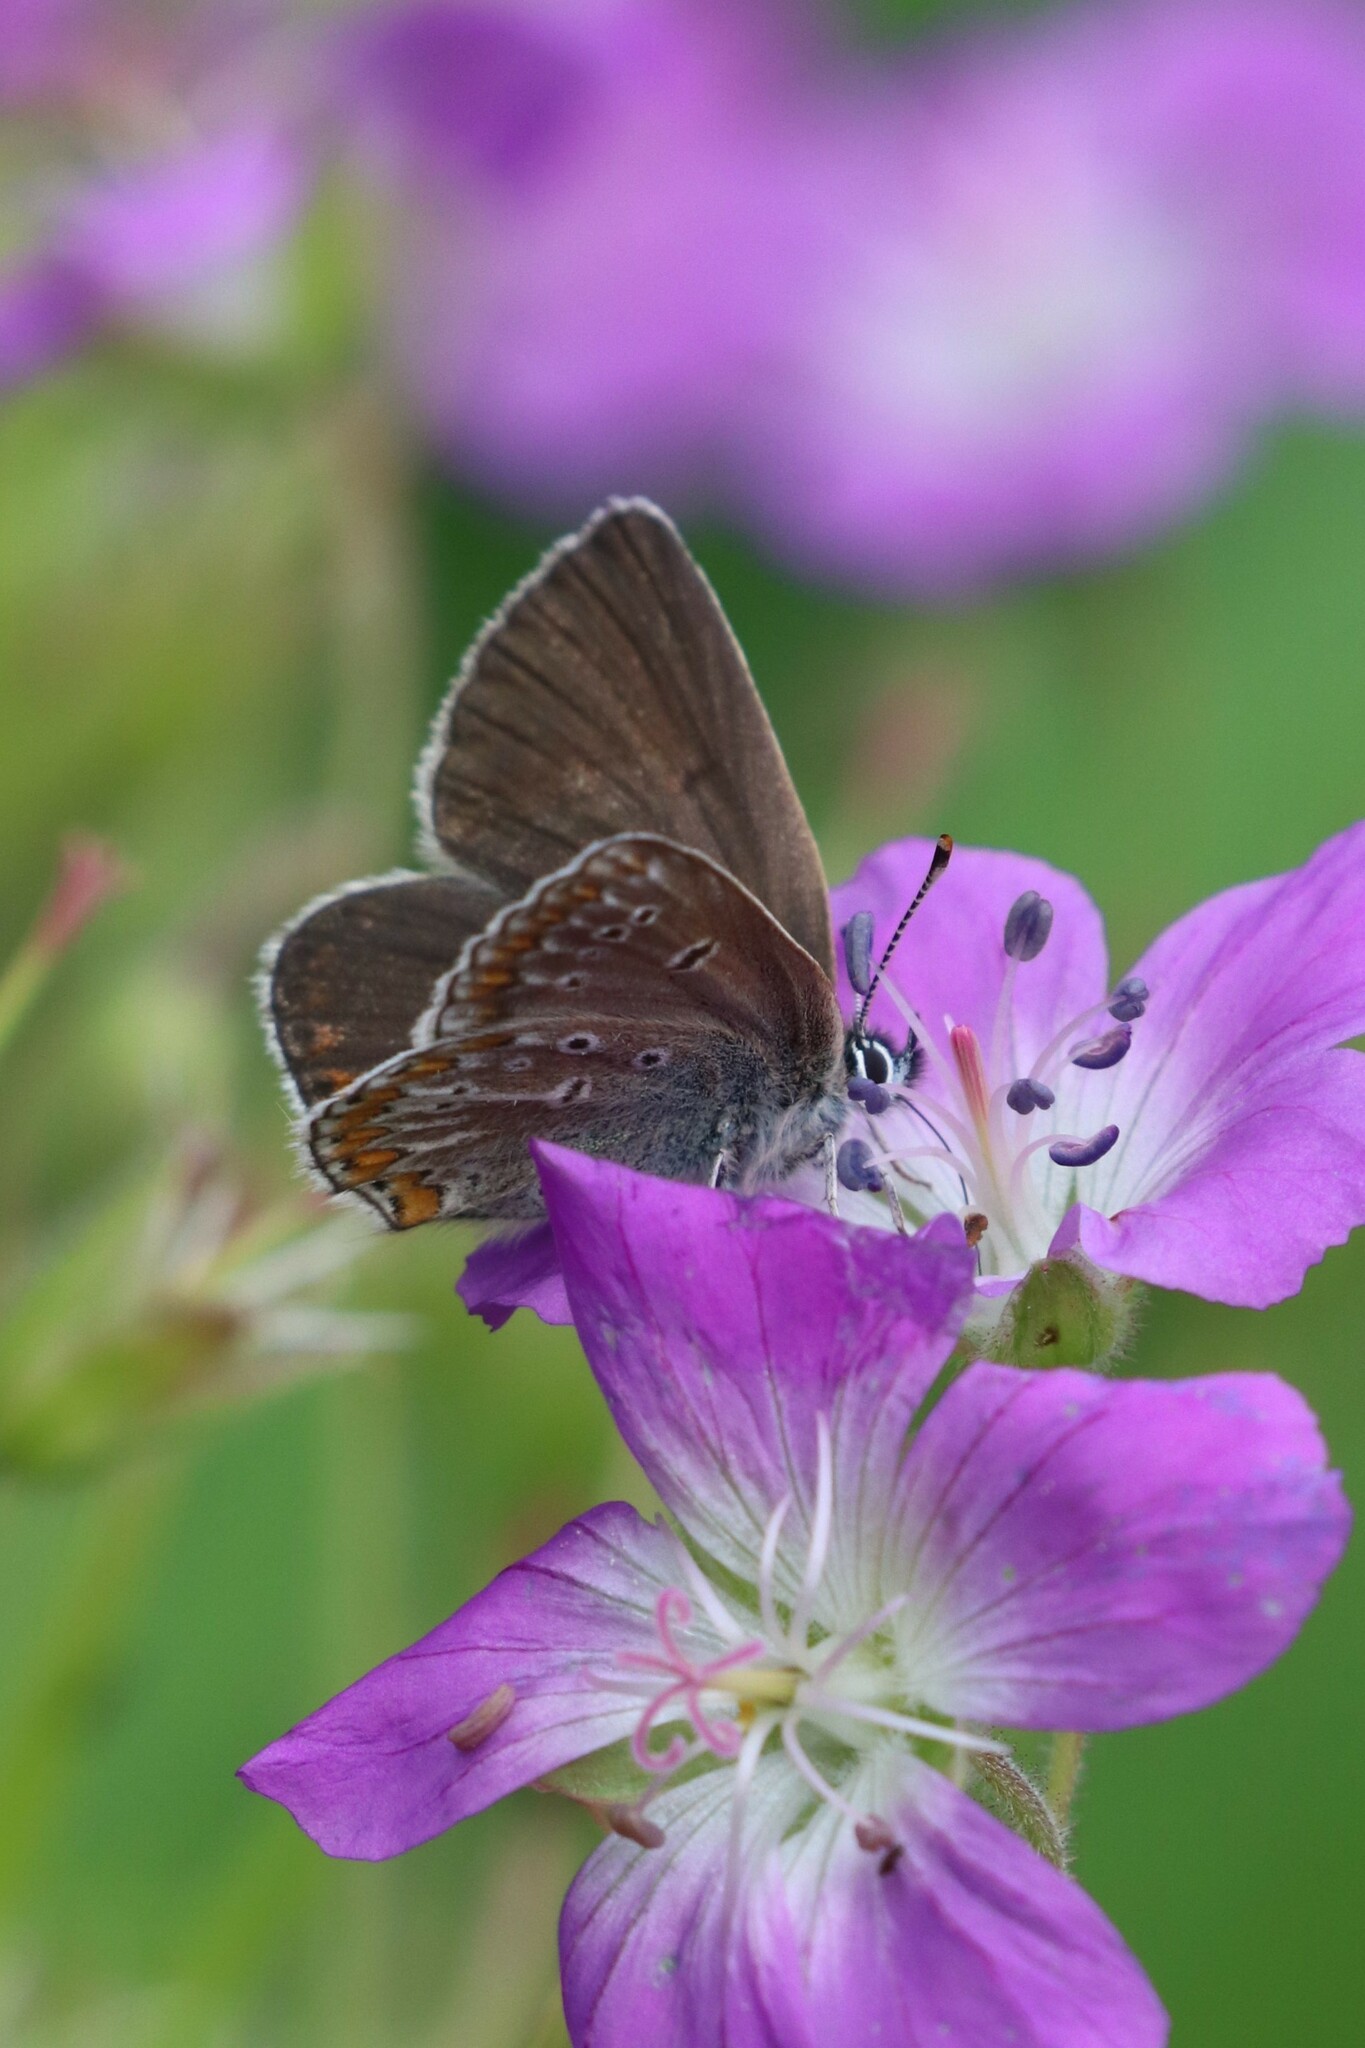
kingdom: Animalia
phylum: Arthropoda
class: Insecta
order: Lepidoptera
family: Lycaenidae
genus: Eumedonia
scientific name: Eumedonia eumedon
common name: Geranium argus
